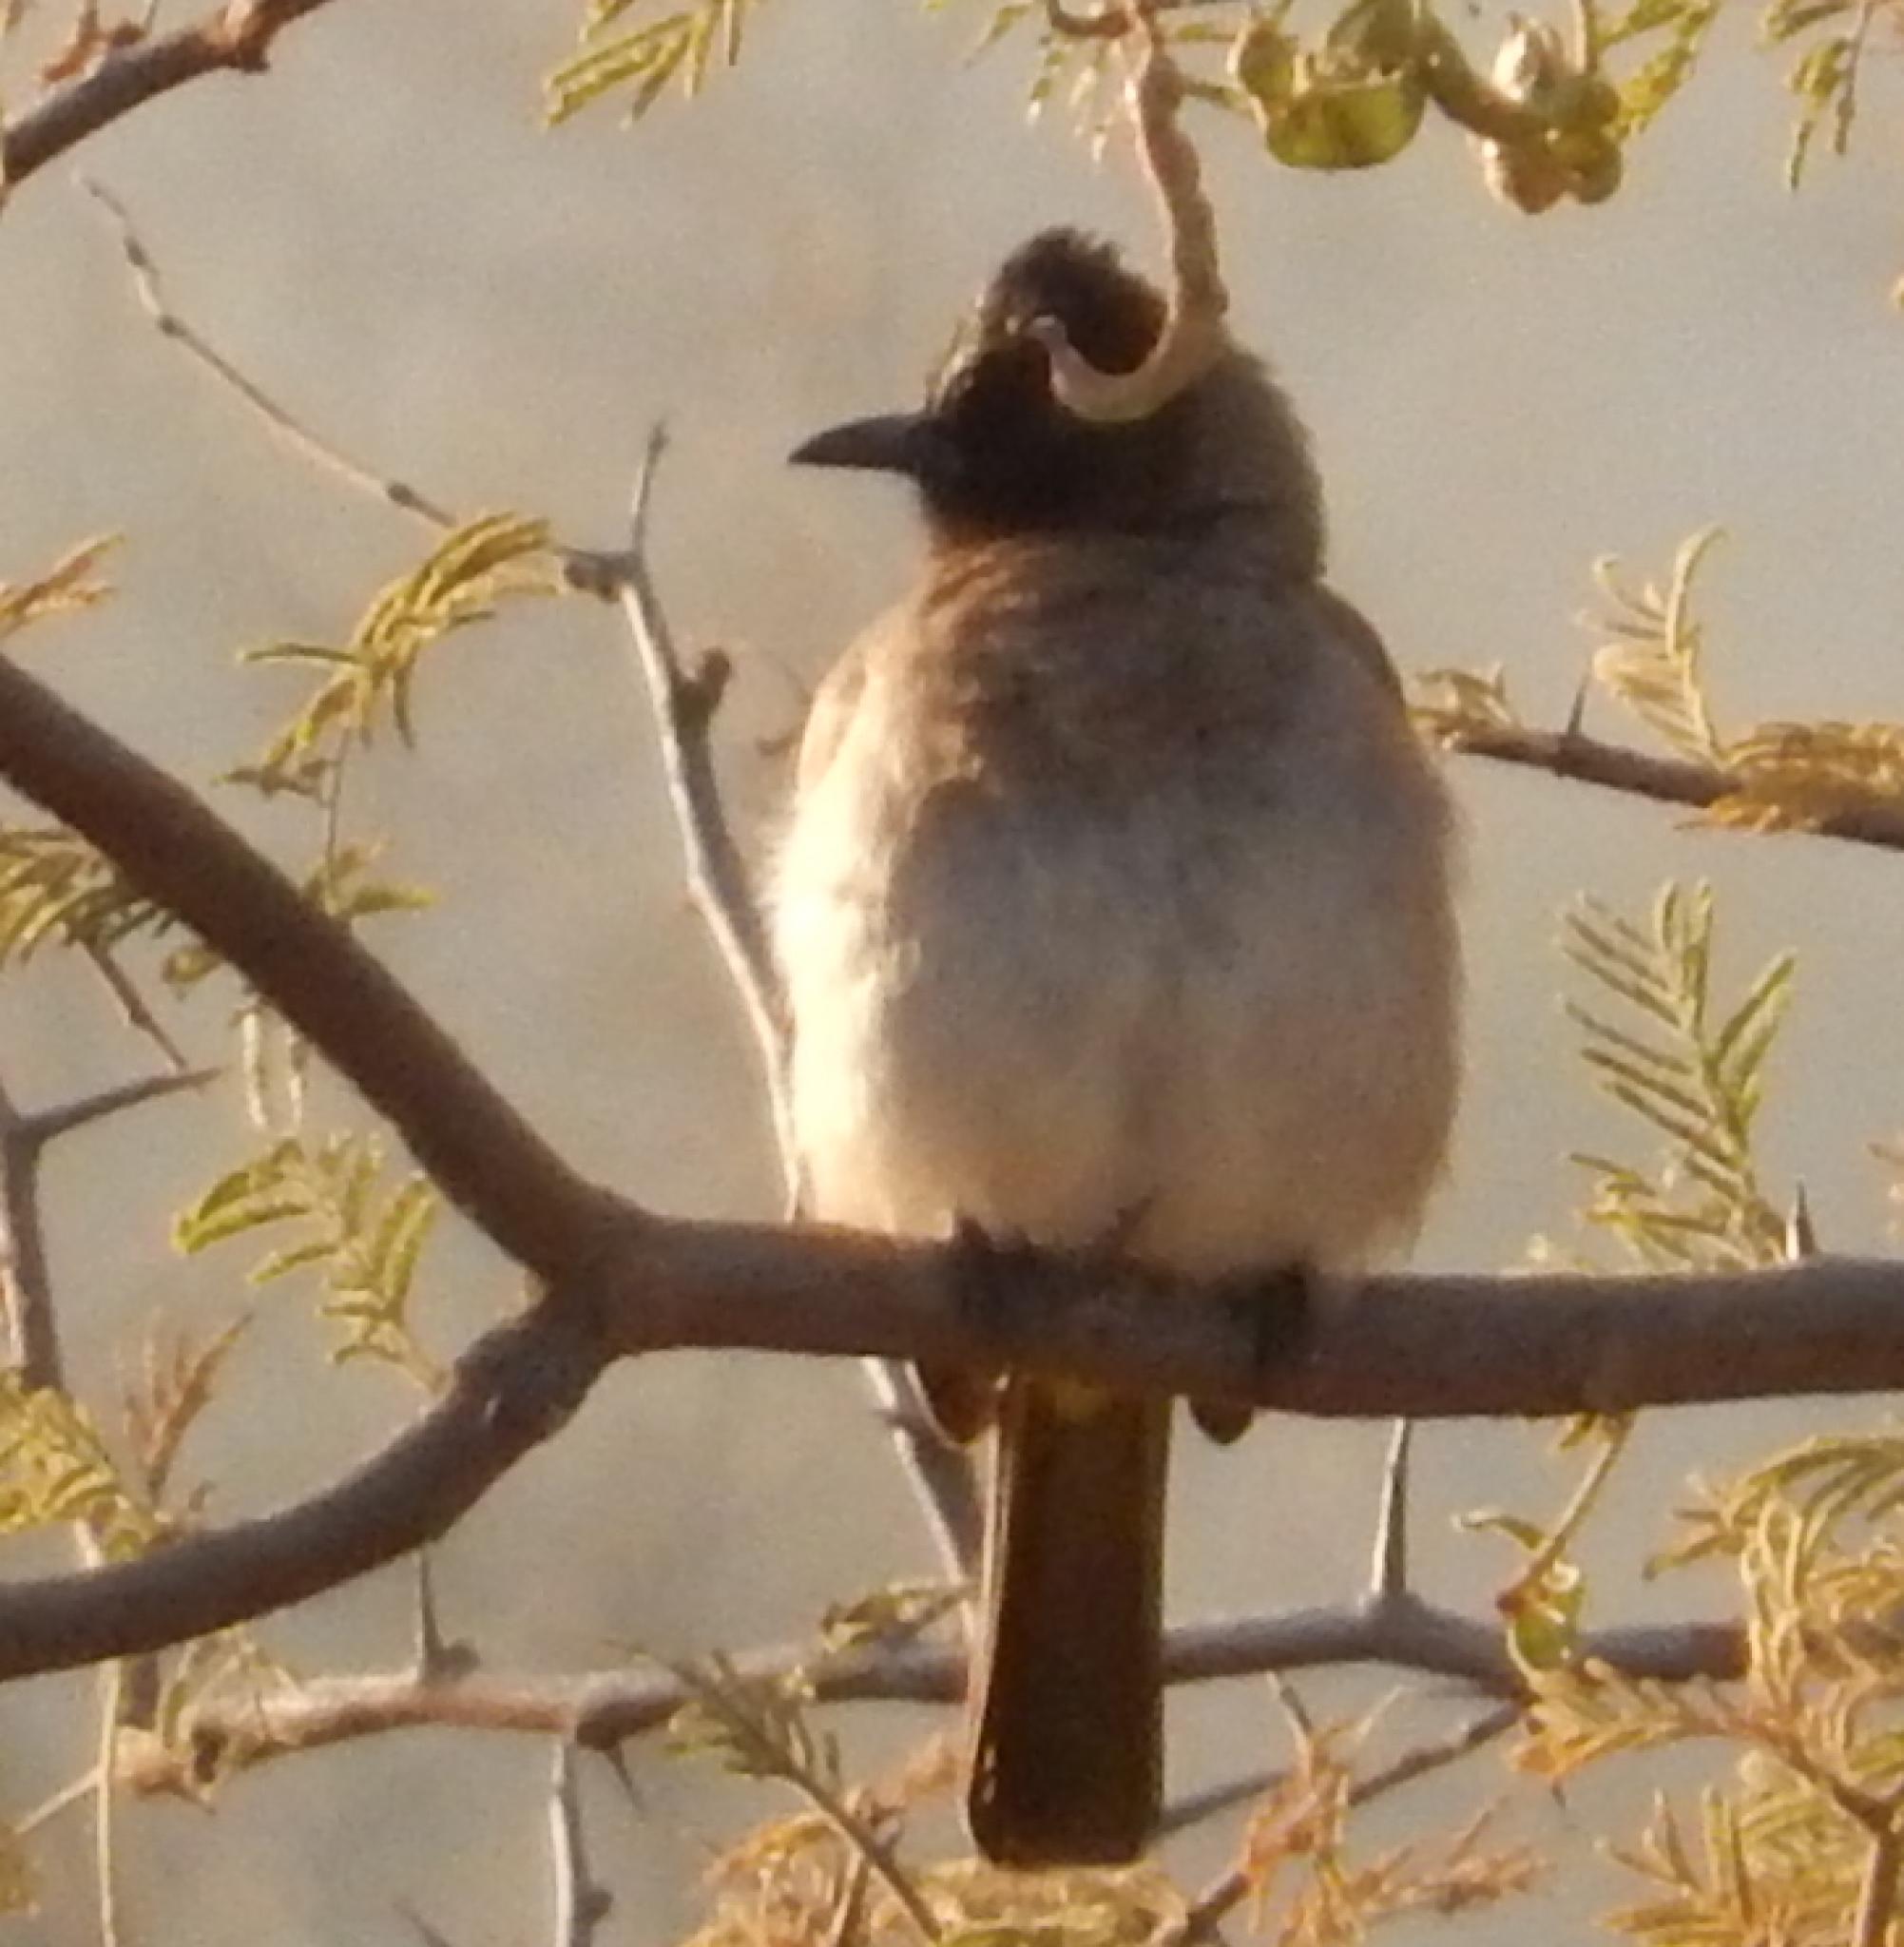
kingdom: Animalia
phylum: Chordata
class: Aves
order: Passeriformes
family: Pycnonotidae
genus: Pycnonotus
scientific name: Pycnonotus barbatus
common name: Common bulbul
